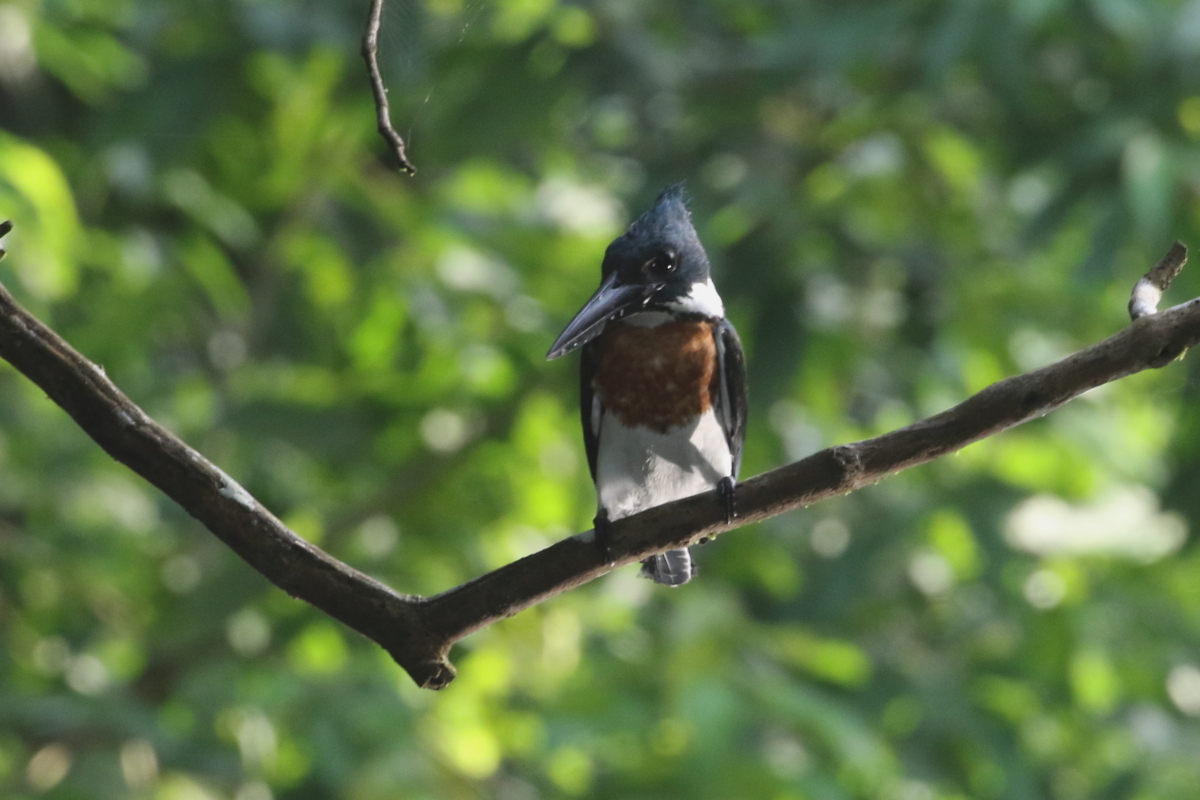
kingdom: Animalia
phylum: Chordata
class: Aves
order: Coraciiformes
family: Alcedinidae
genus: Chloroceryle
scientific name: Chloroceryle amazona
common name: Amazon kingfisher
